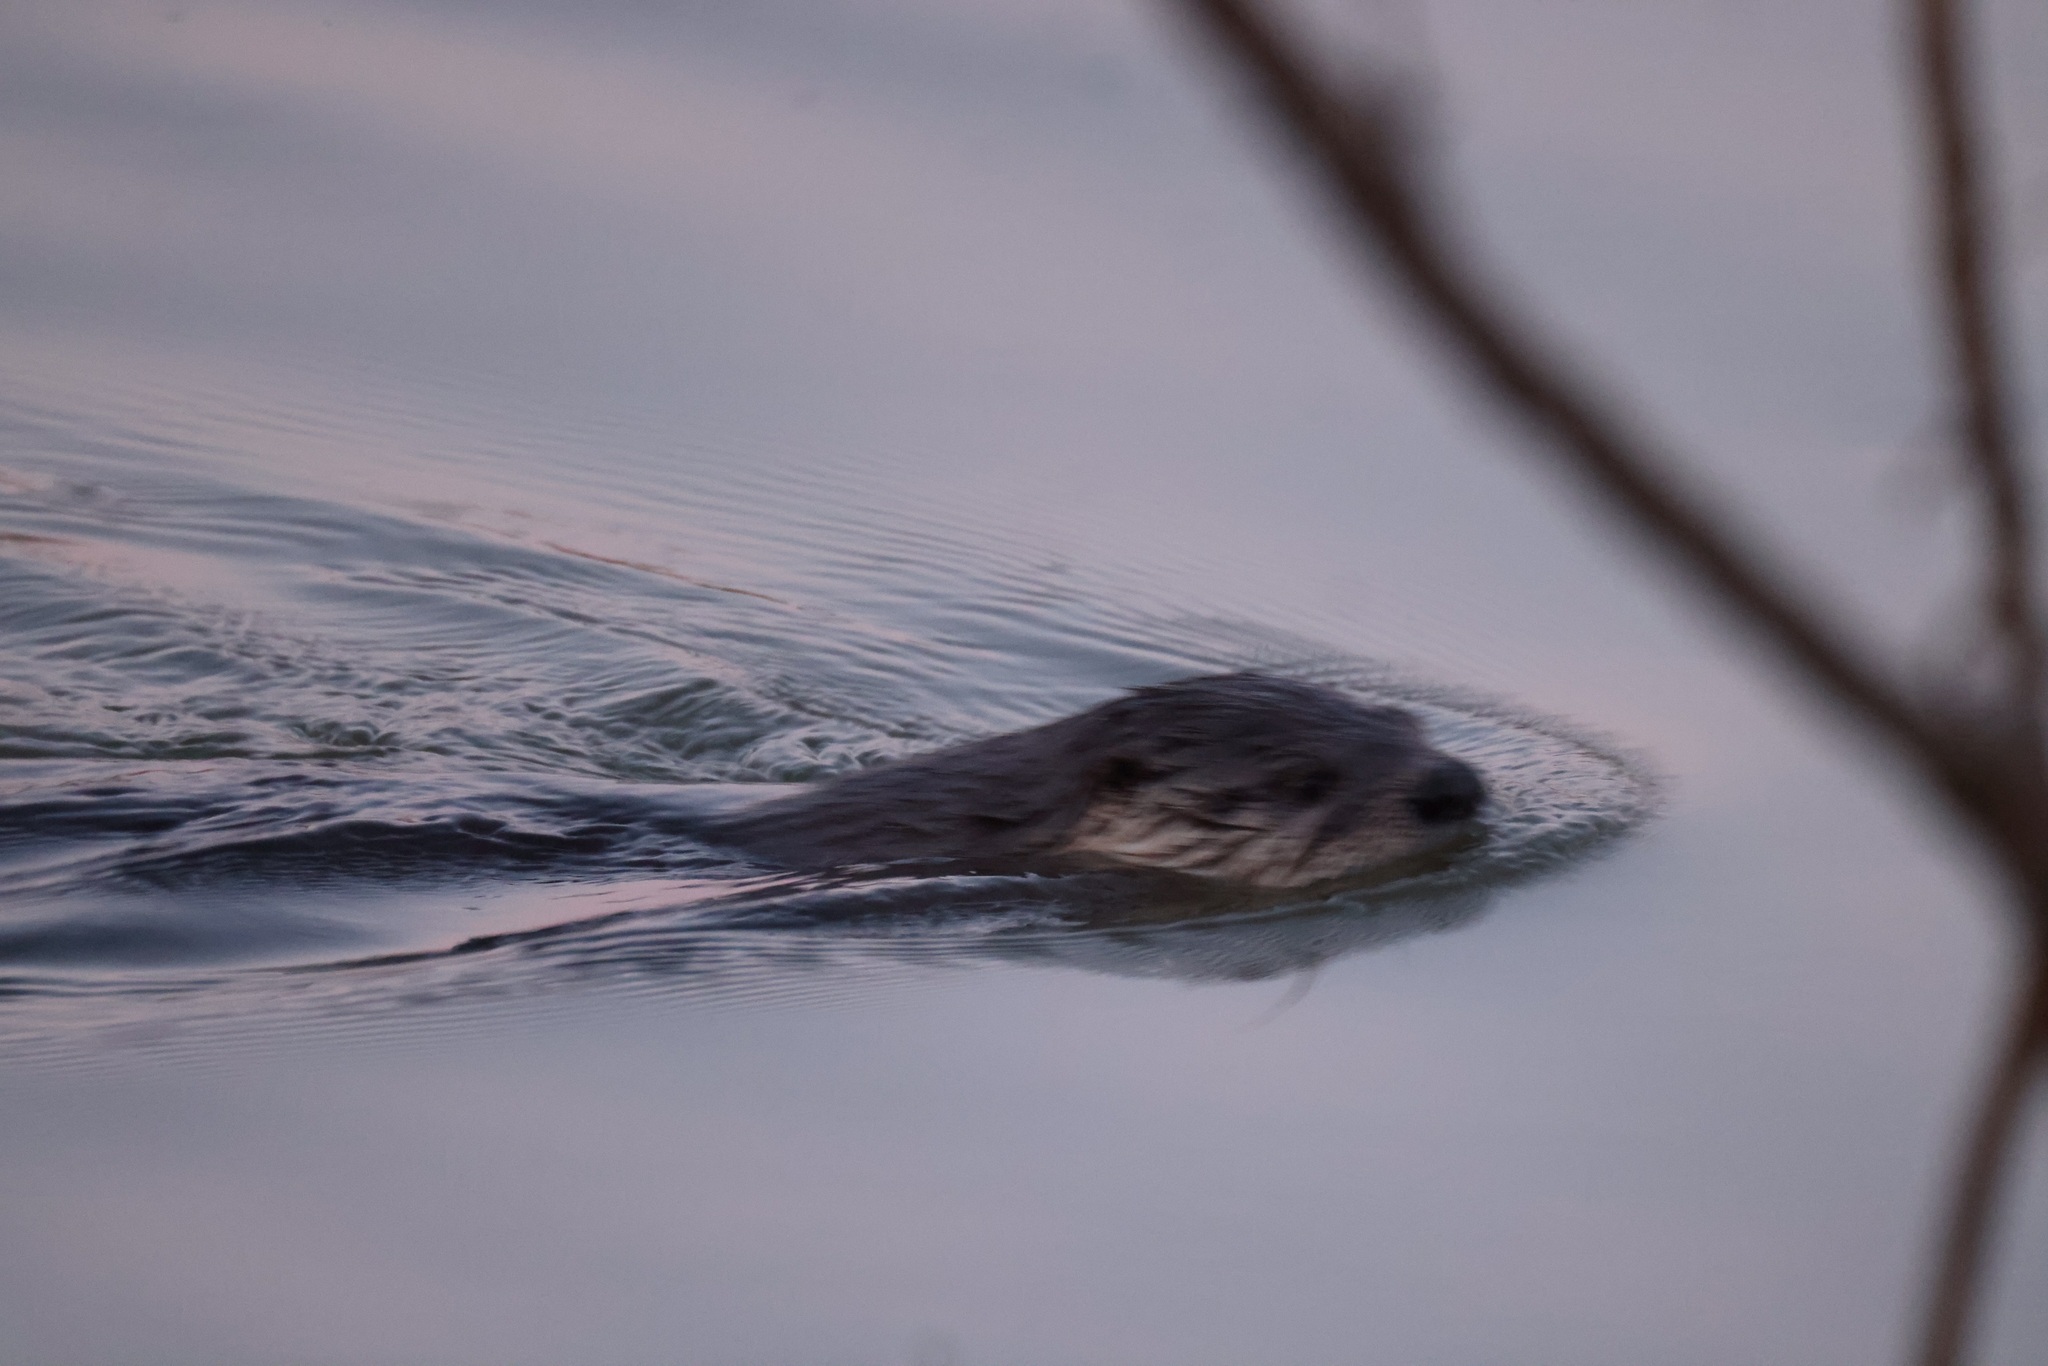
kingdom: Animalia
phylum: Chordata
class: Mammalia
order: Carnivora
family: Mustelidae
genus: Lontra
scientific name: Lontra canadensis
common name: North american river otter
